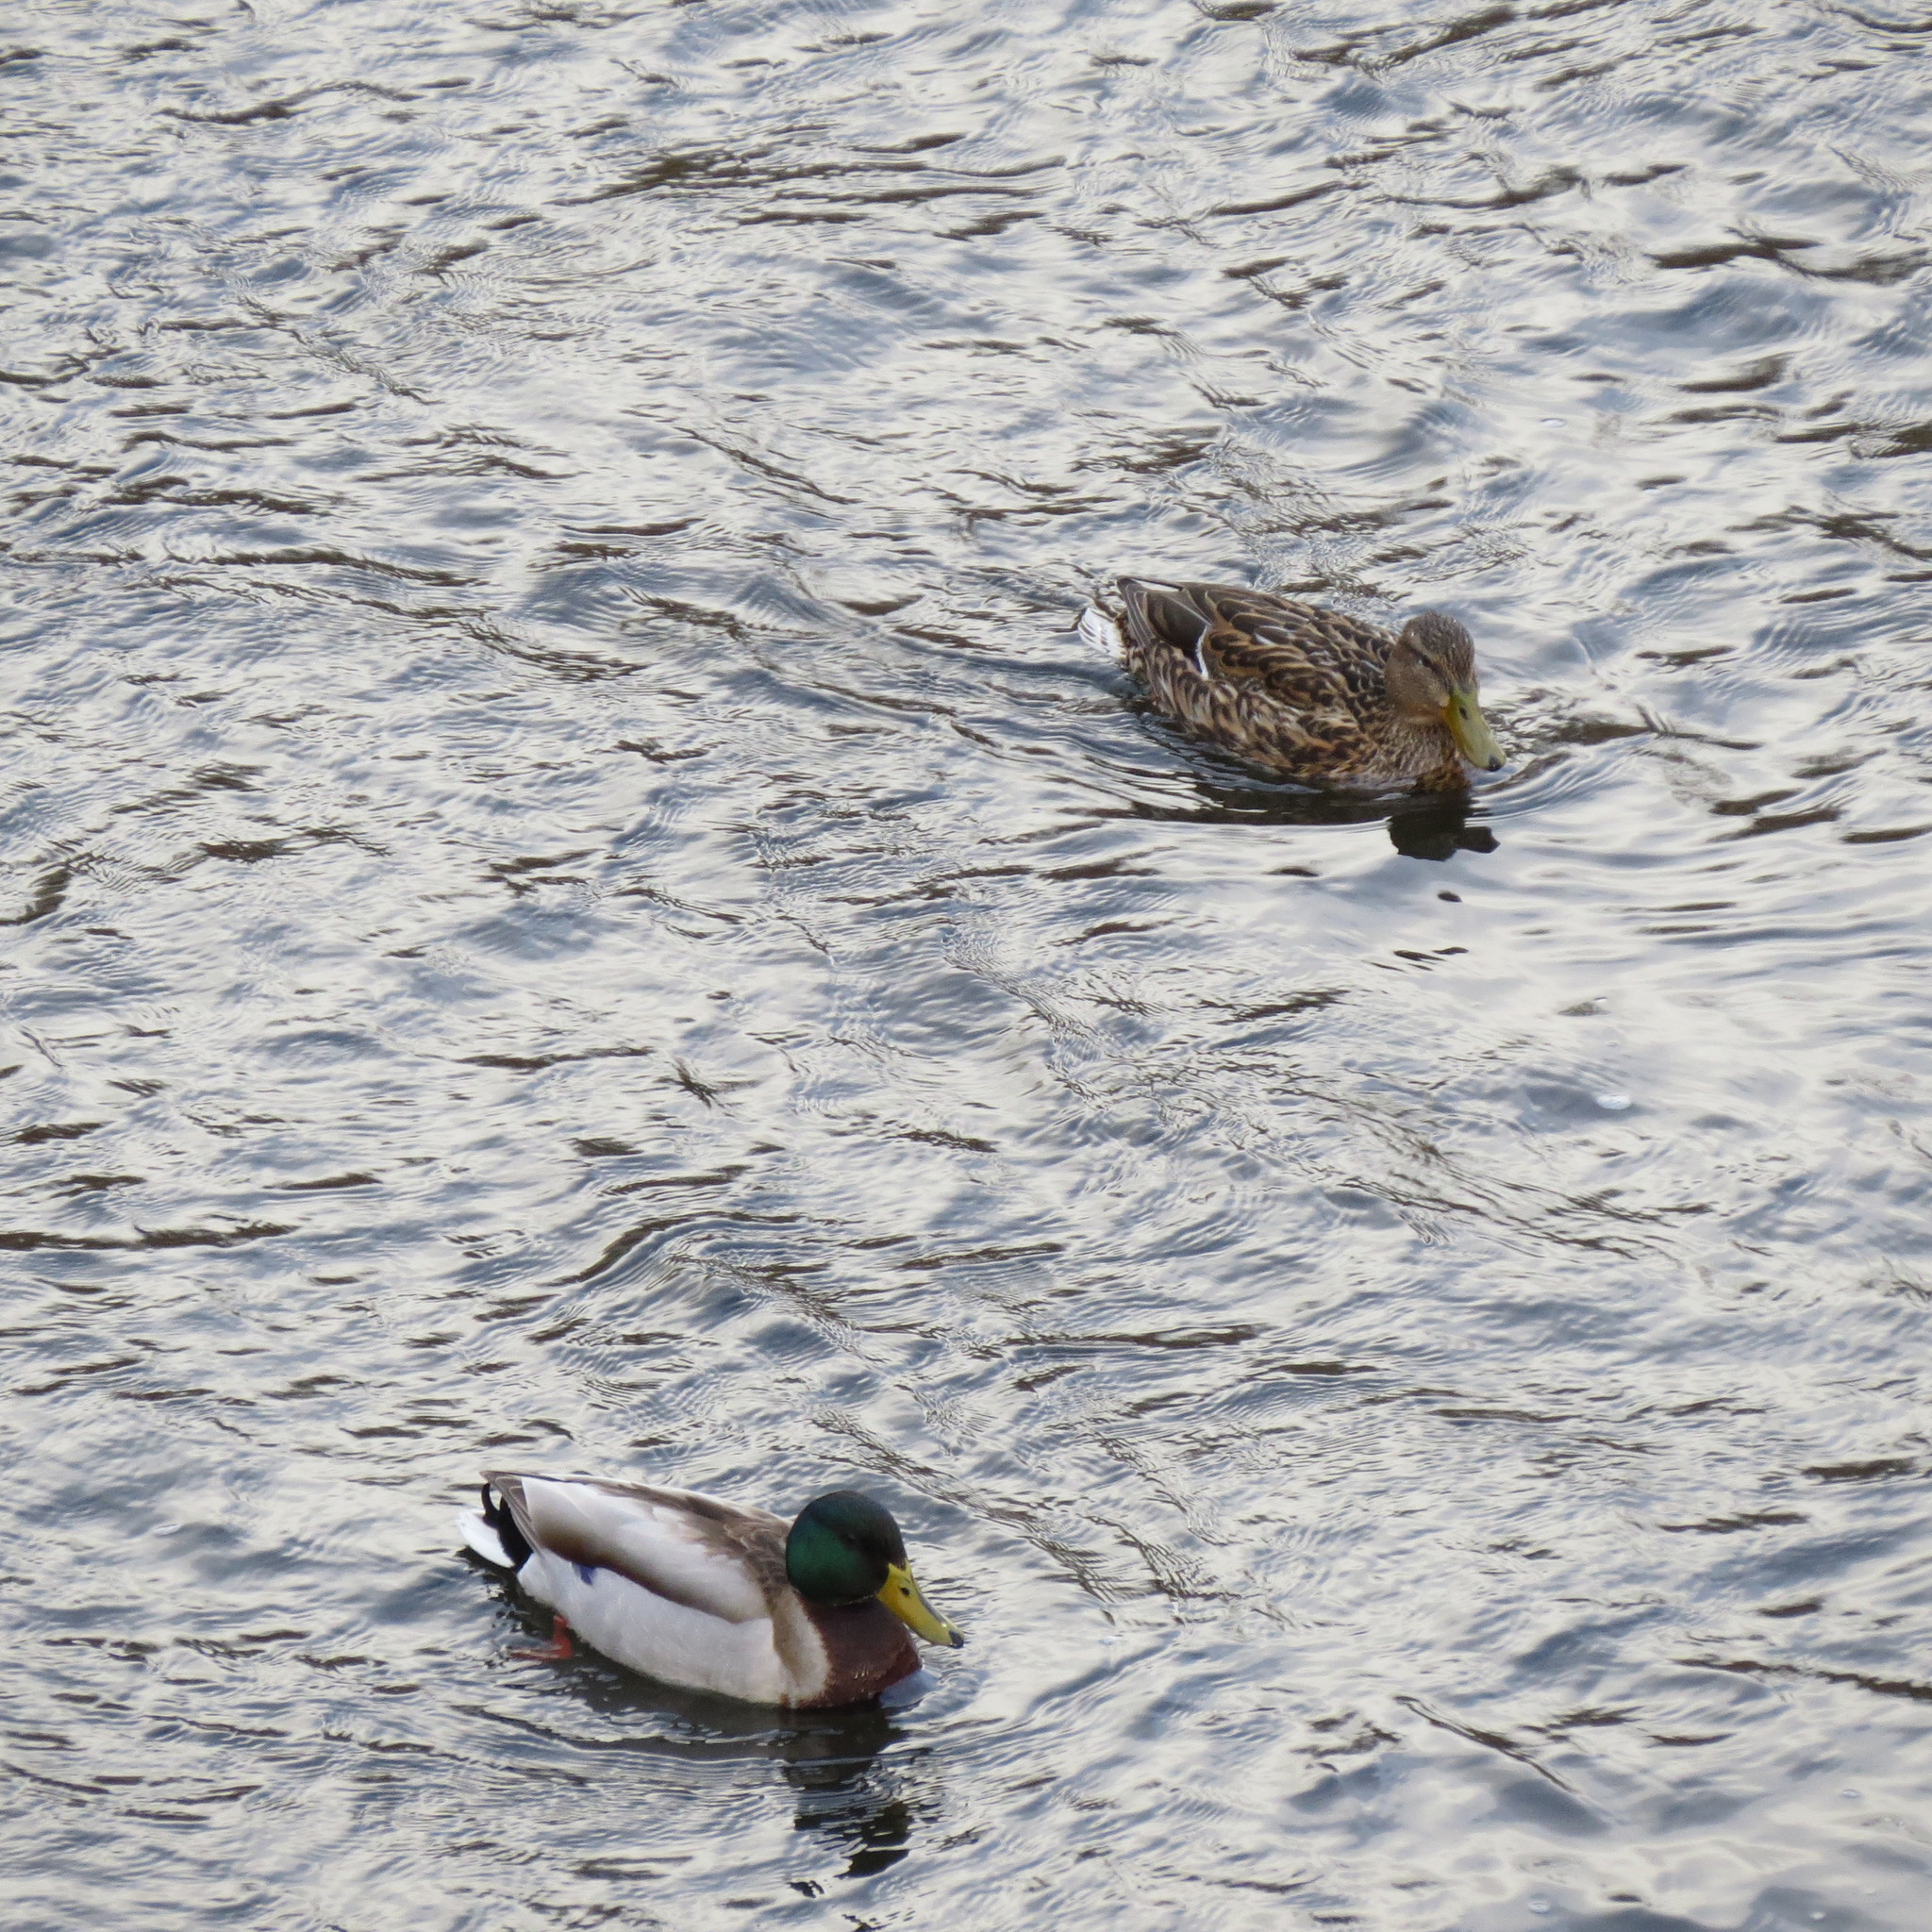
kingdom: Animalia
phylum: Chordata
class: Aves
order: Anseriformes
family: Anatidae
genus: Anas
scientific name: Anas platyrhynchos
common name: Mallard
